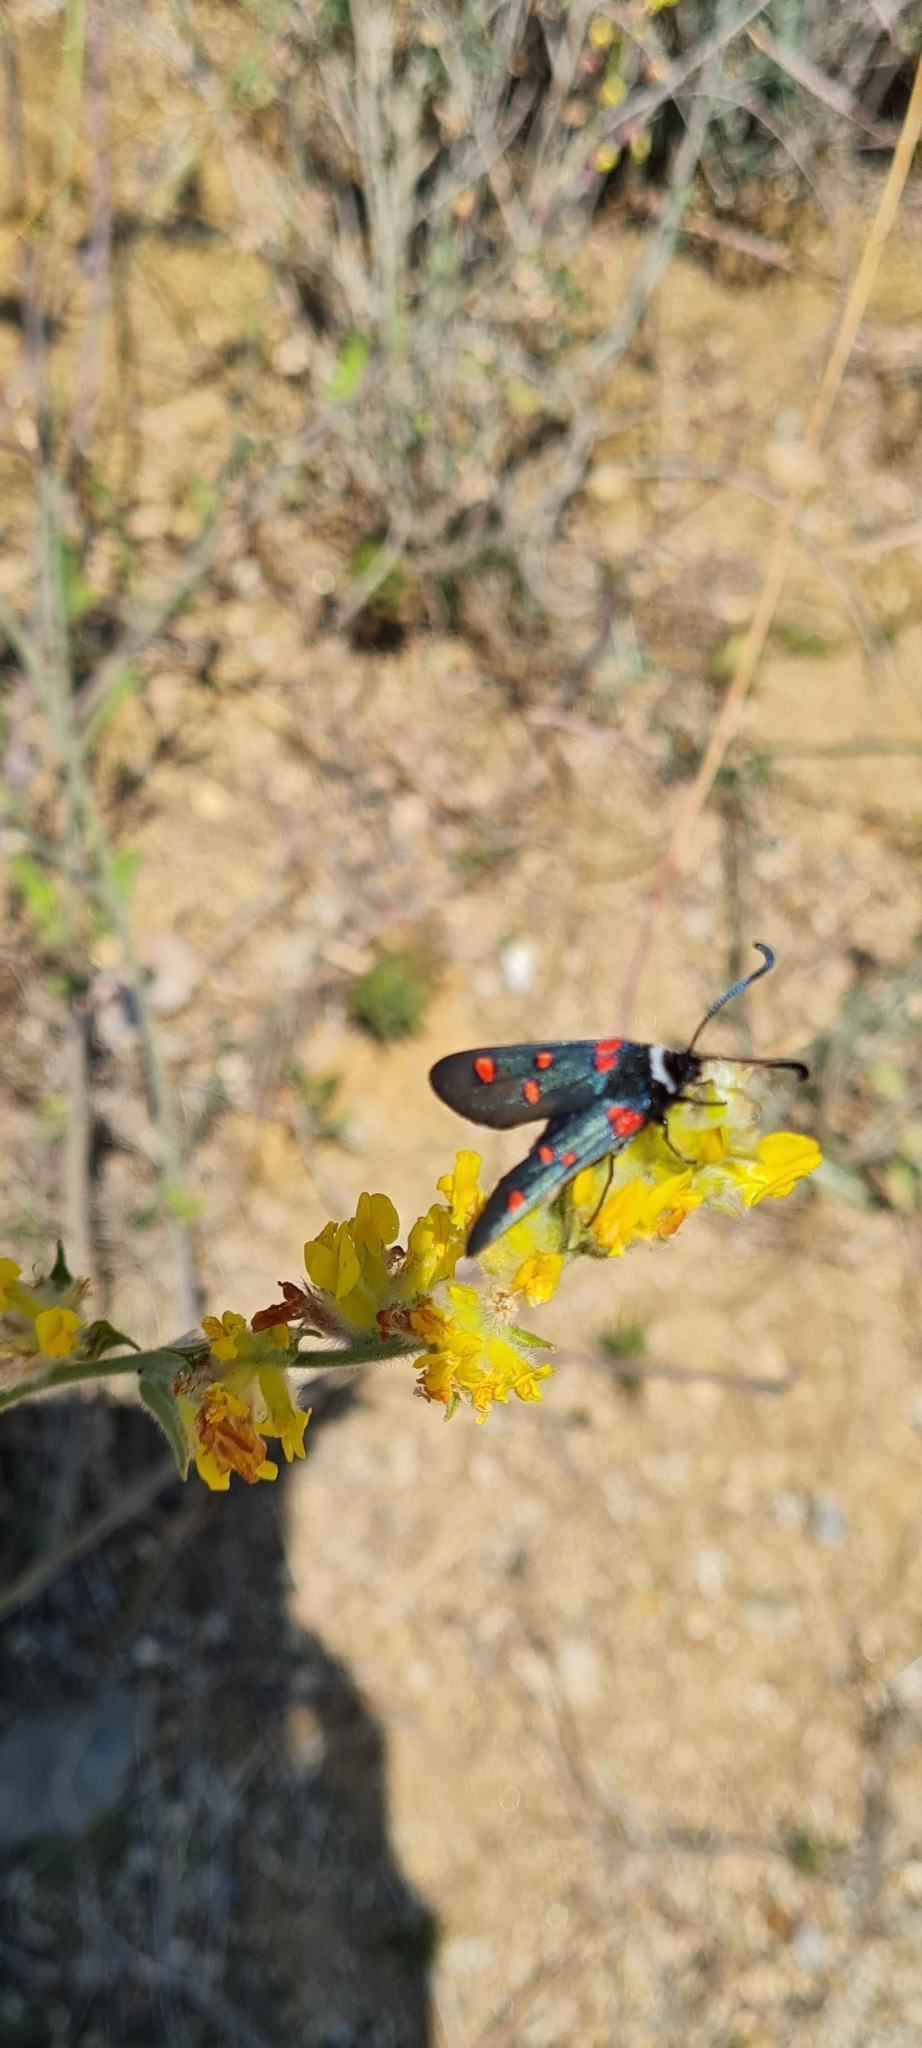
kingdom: Animalia
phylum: Arthropoda
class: Insecta
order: Lepidoptera
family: Zygaenidae
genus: Zygaena
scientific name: Zygaena lavandulae
